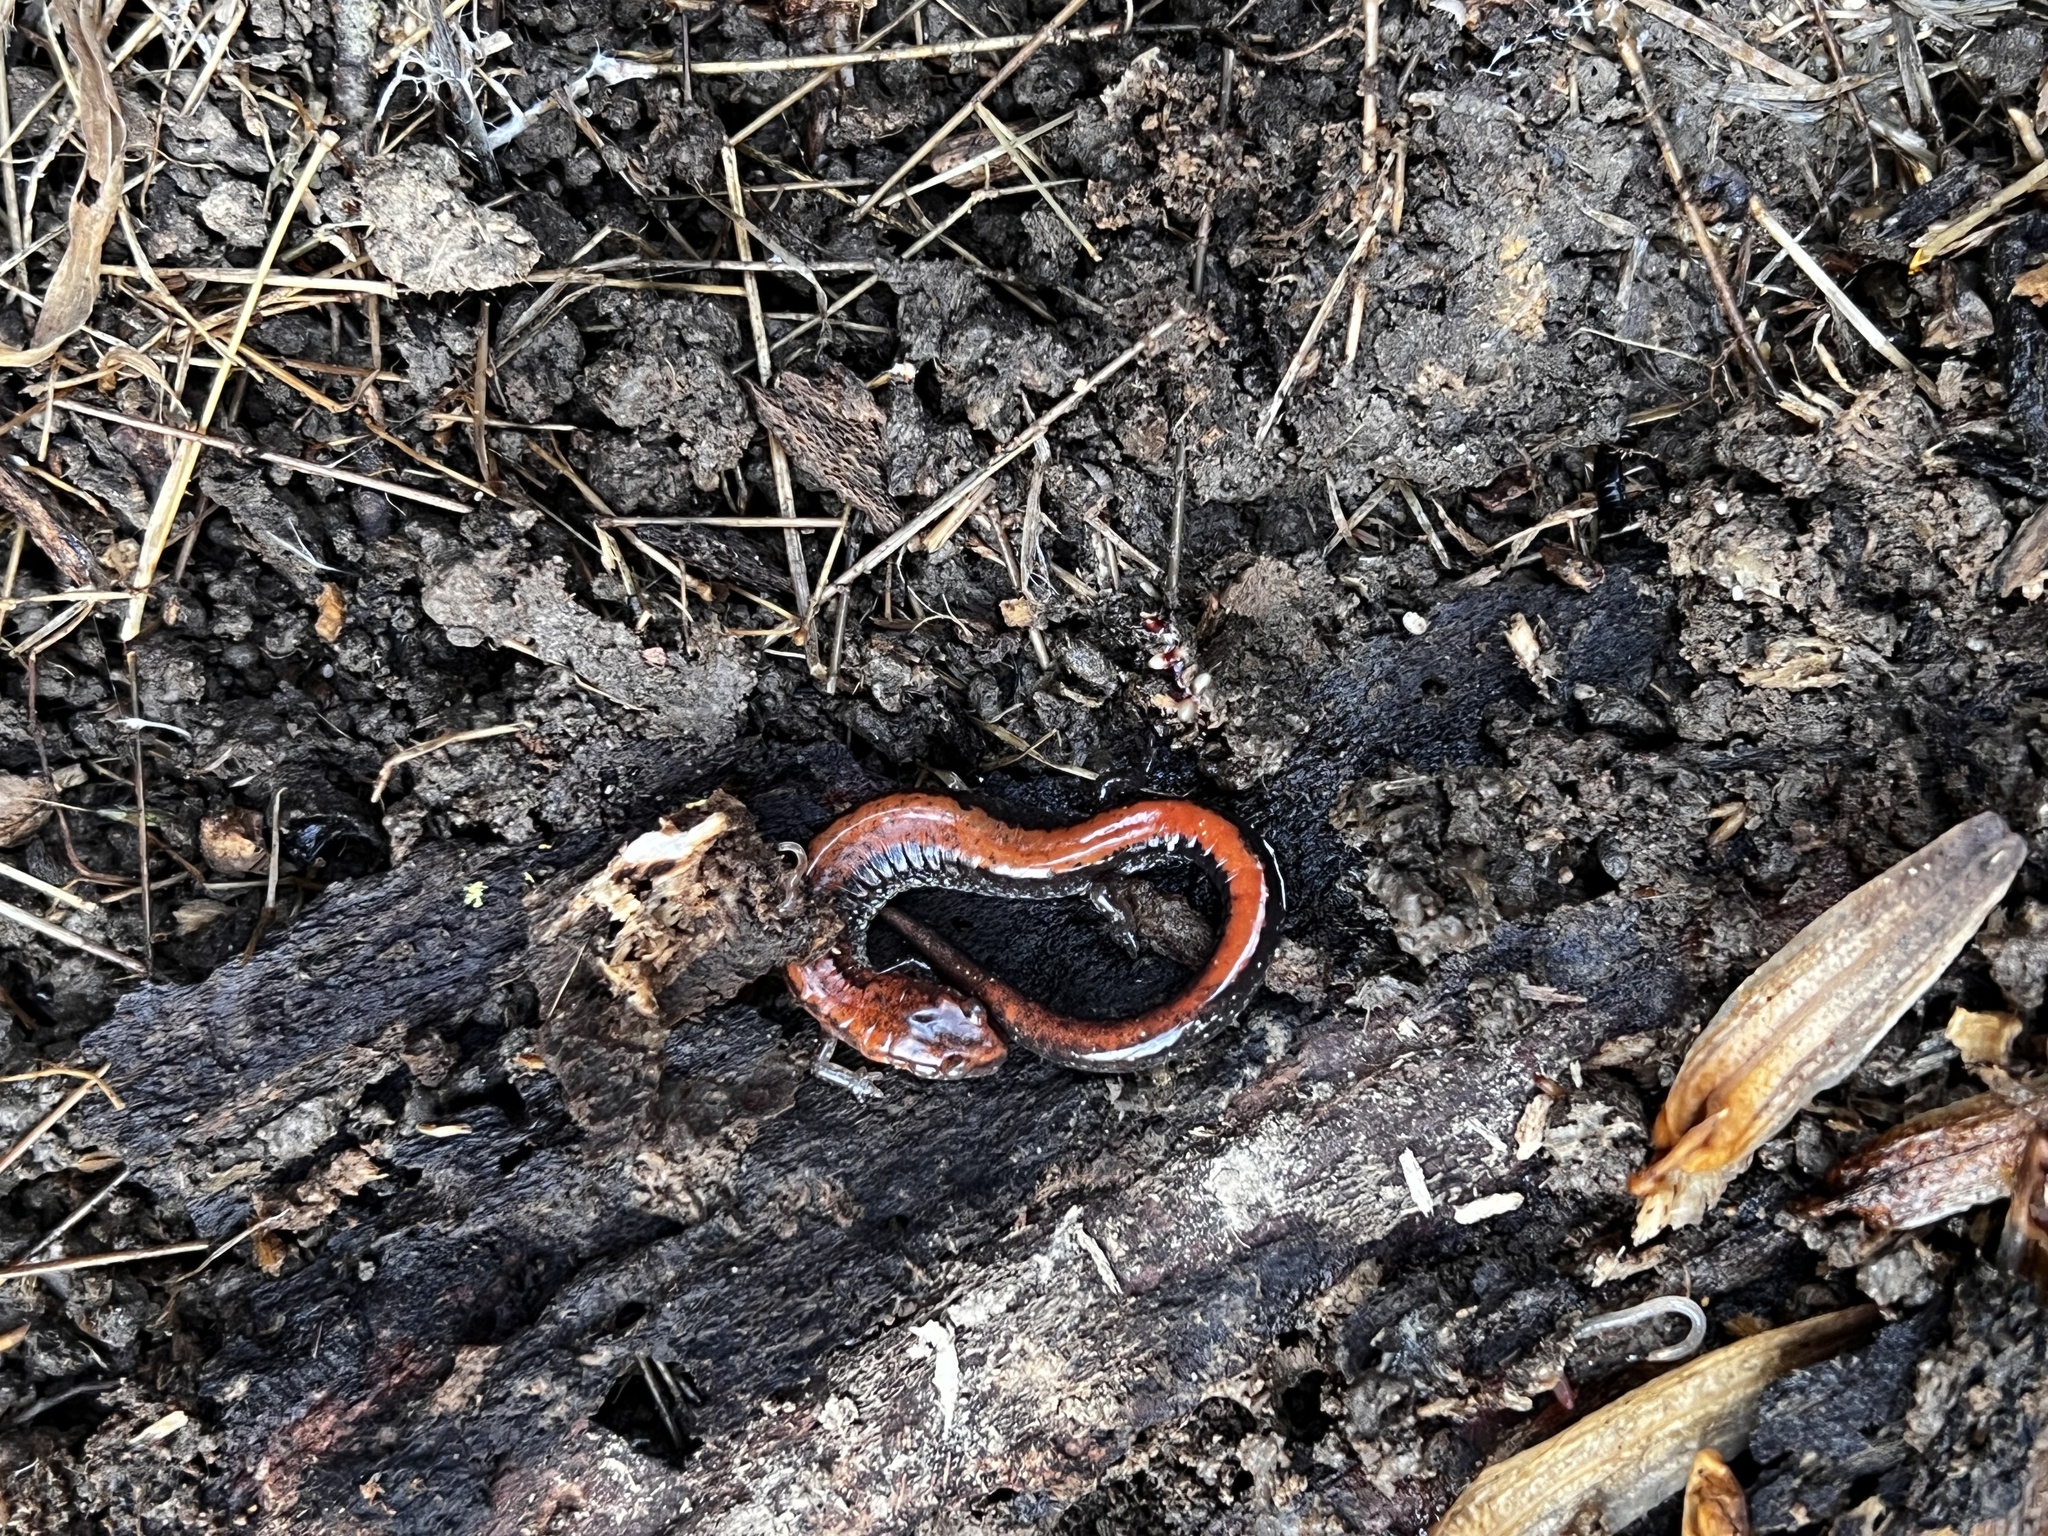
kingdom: Animalia
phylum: Chordata
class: Amphibia
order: Caudata
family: Plethodontidae
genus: Plethodon
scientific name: Plethodon cinereus
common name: Redback salamander
